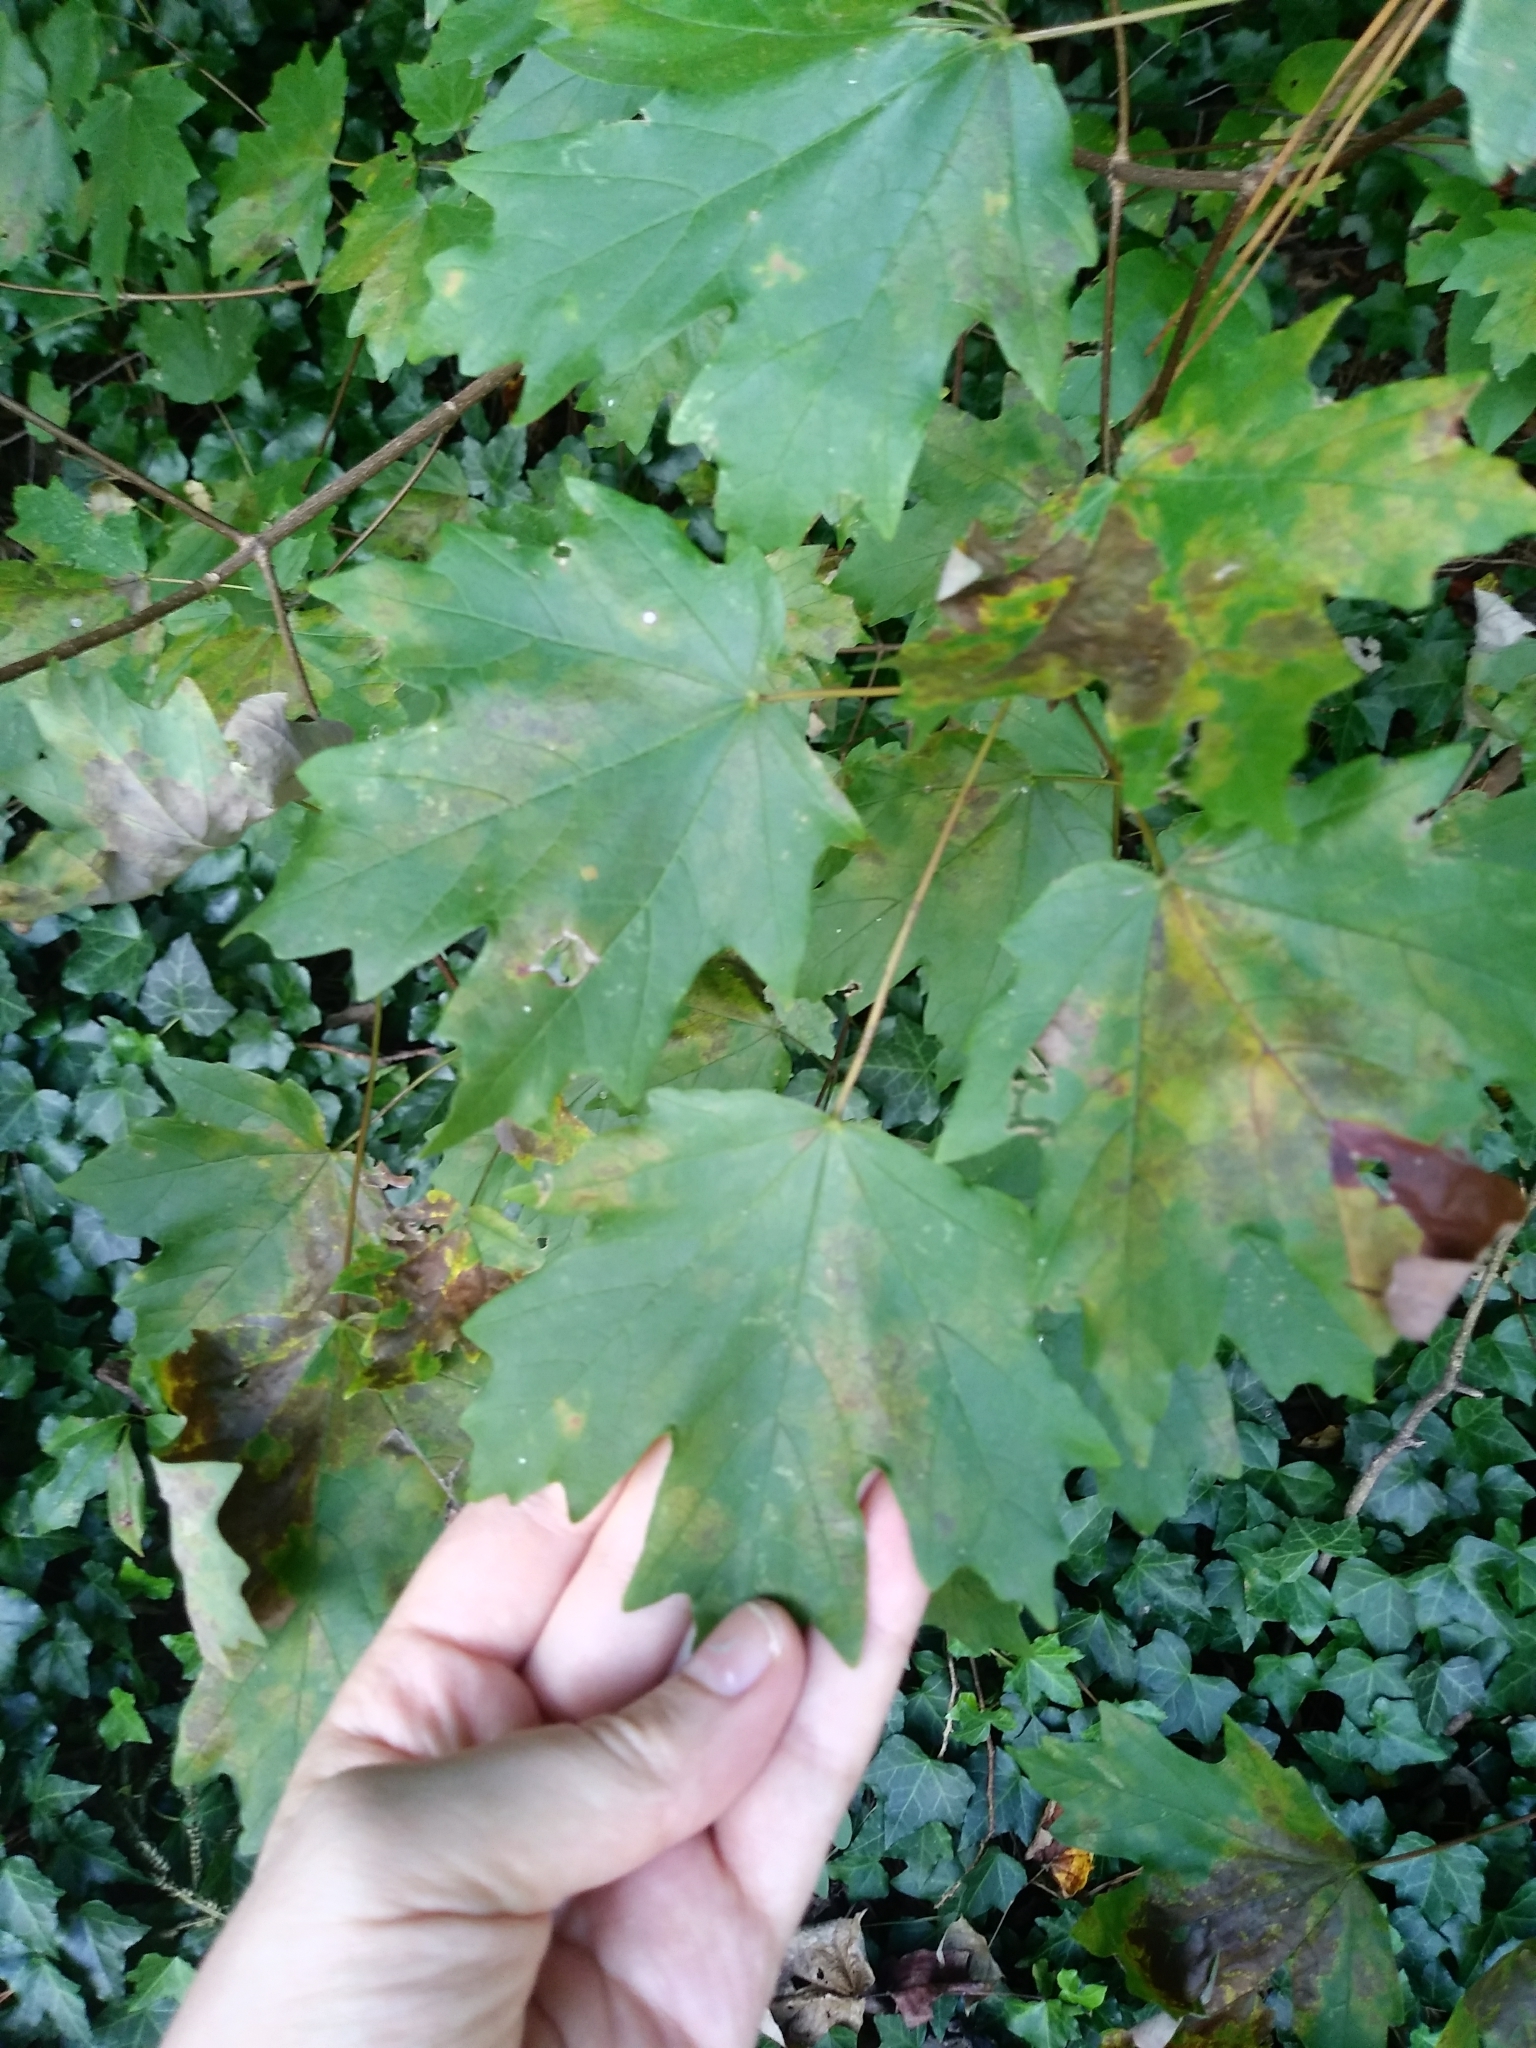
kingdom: Plantae
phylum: Tracheophyta
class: Magnoliopsida
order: Sapindales
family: Sapindaceae
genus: Acer
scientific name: Acer floridanum
